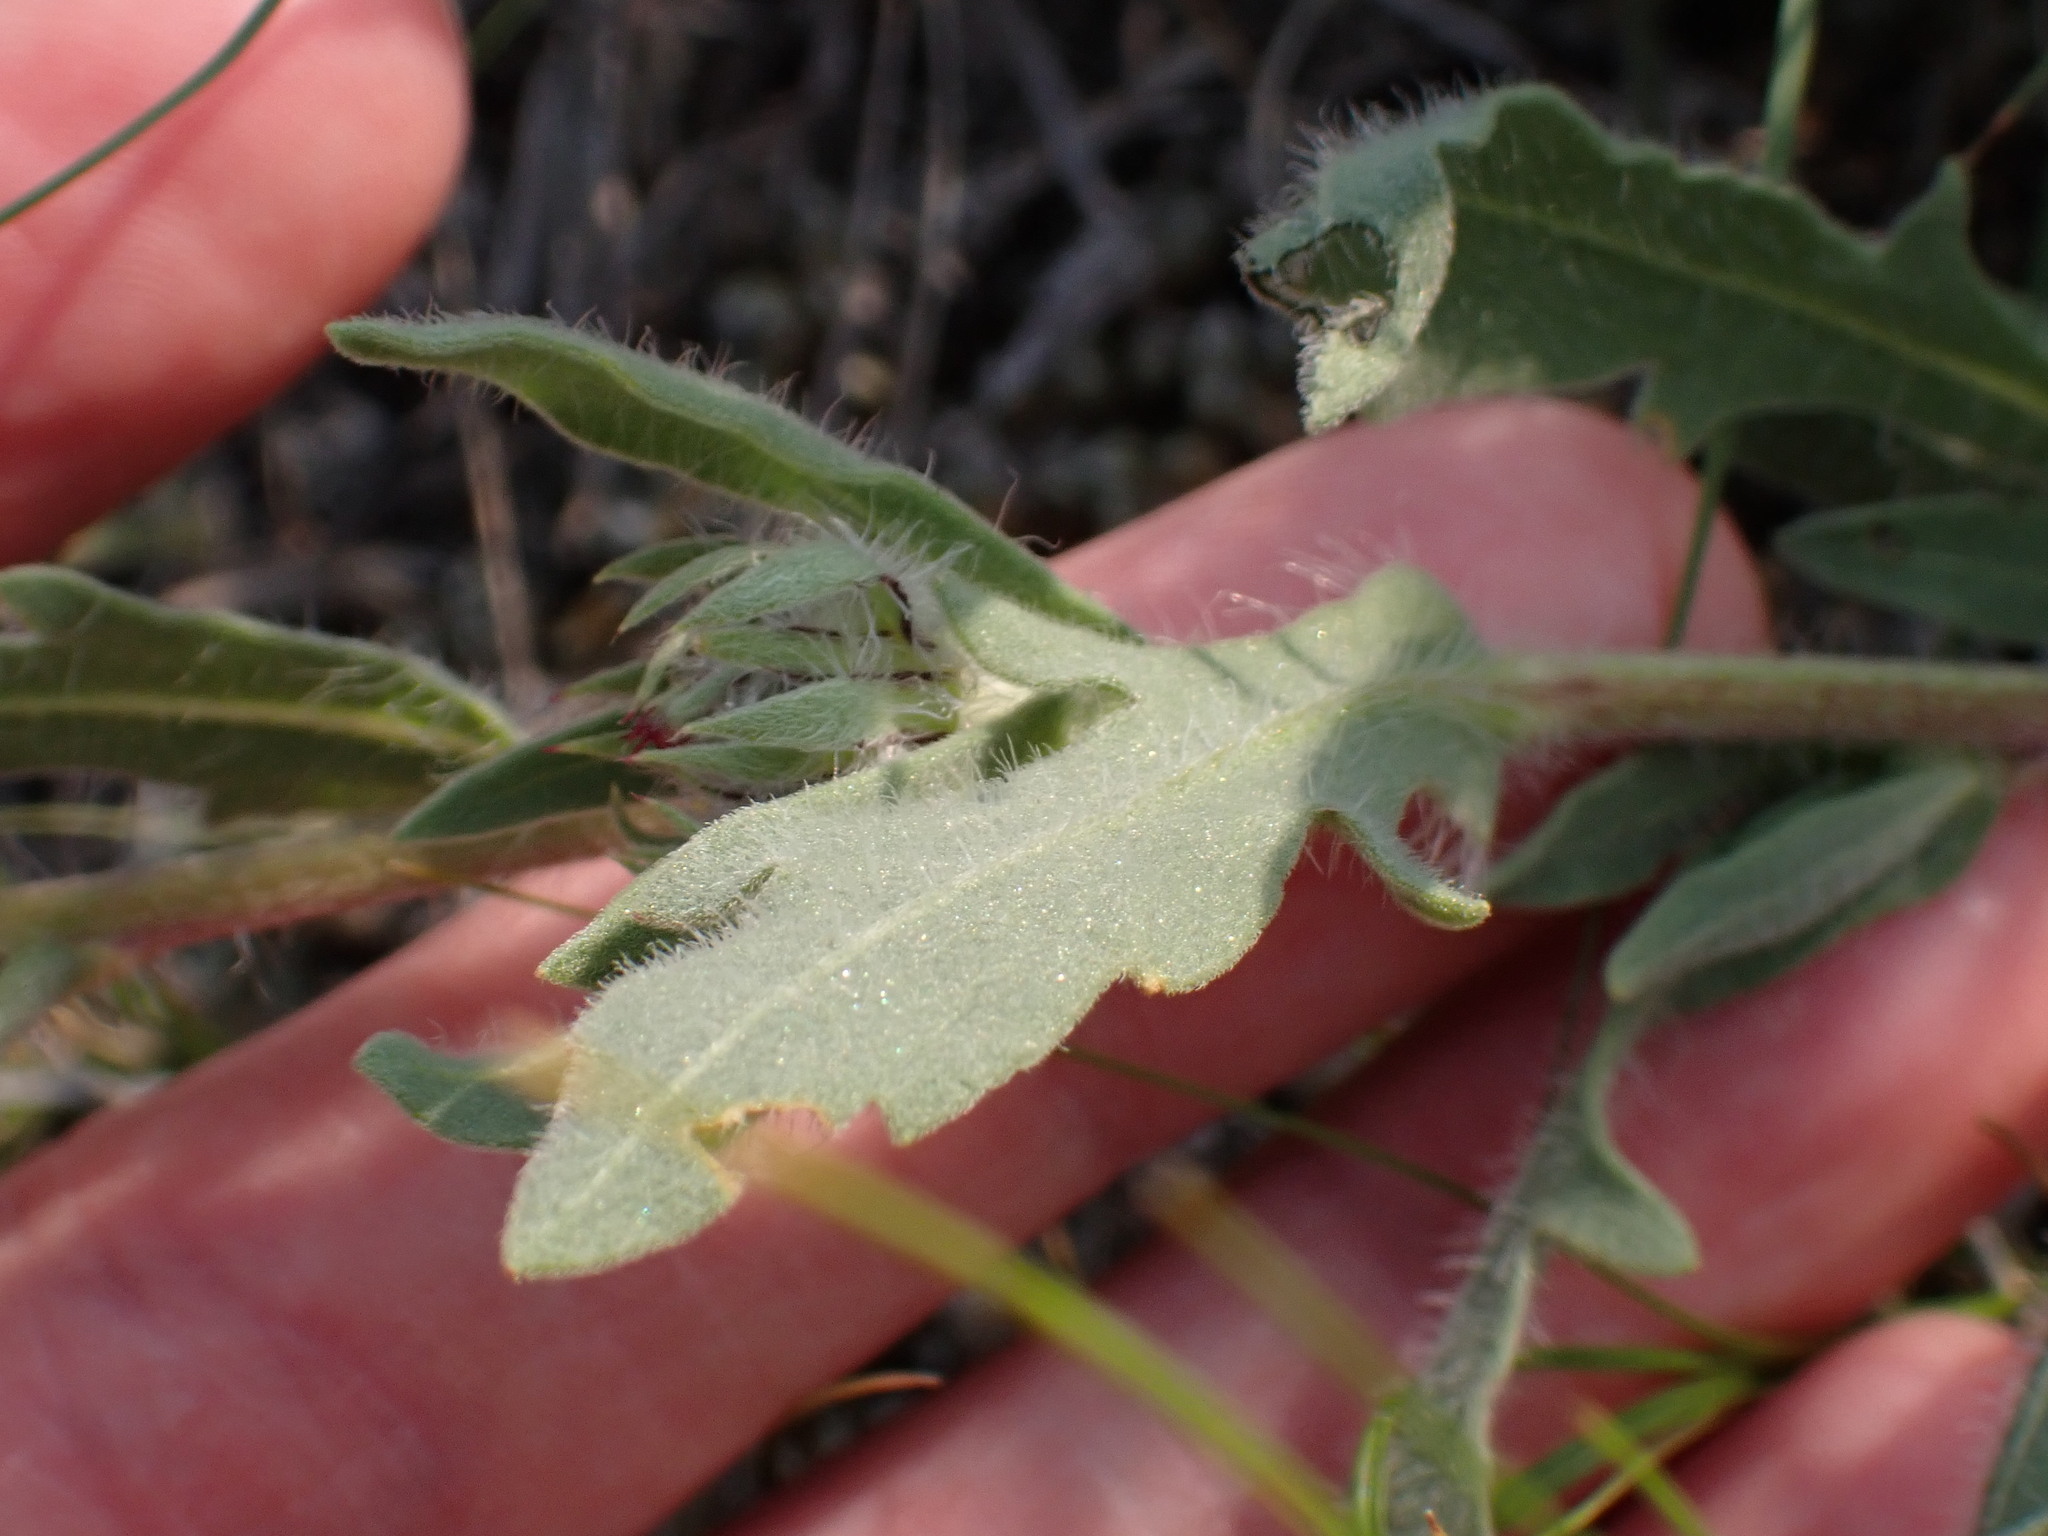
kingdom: Plantae
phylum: Tracheophyta
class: Magnoliopsida
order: Asterales
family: Asteraceae
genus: Gaillardia
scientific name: Gaillardia aristata
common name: Blanket-flower
